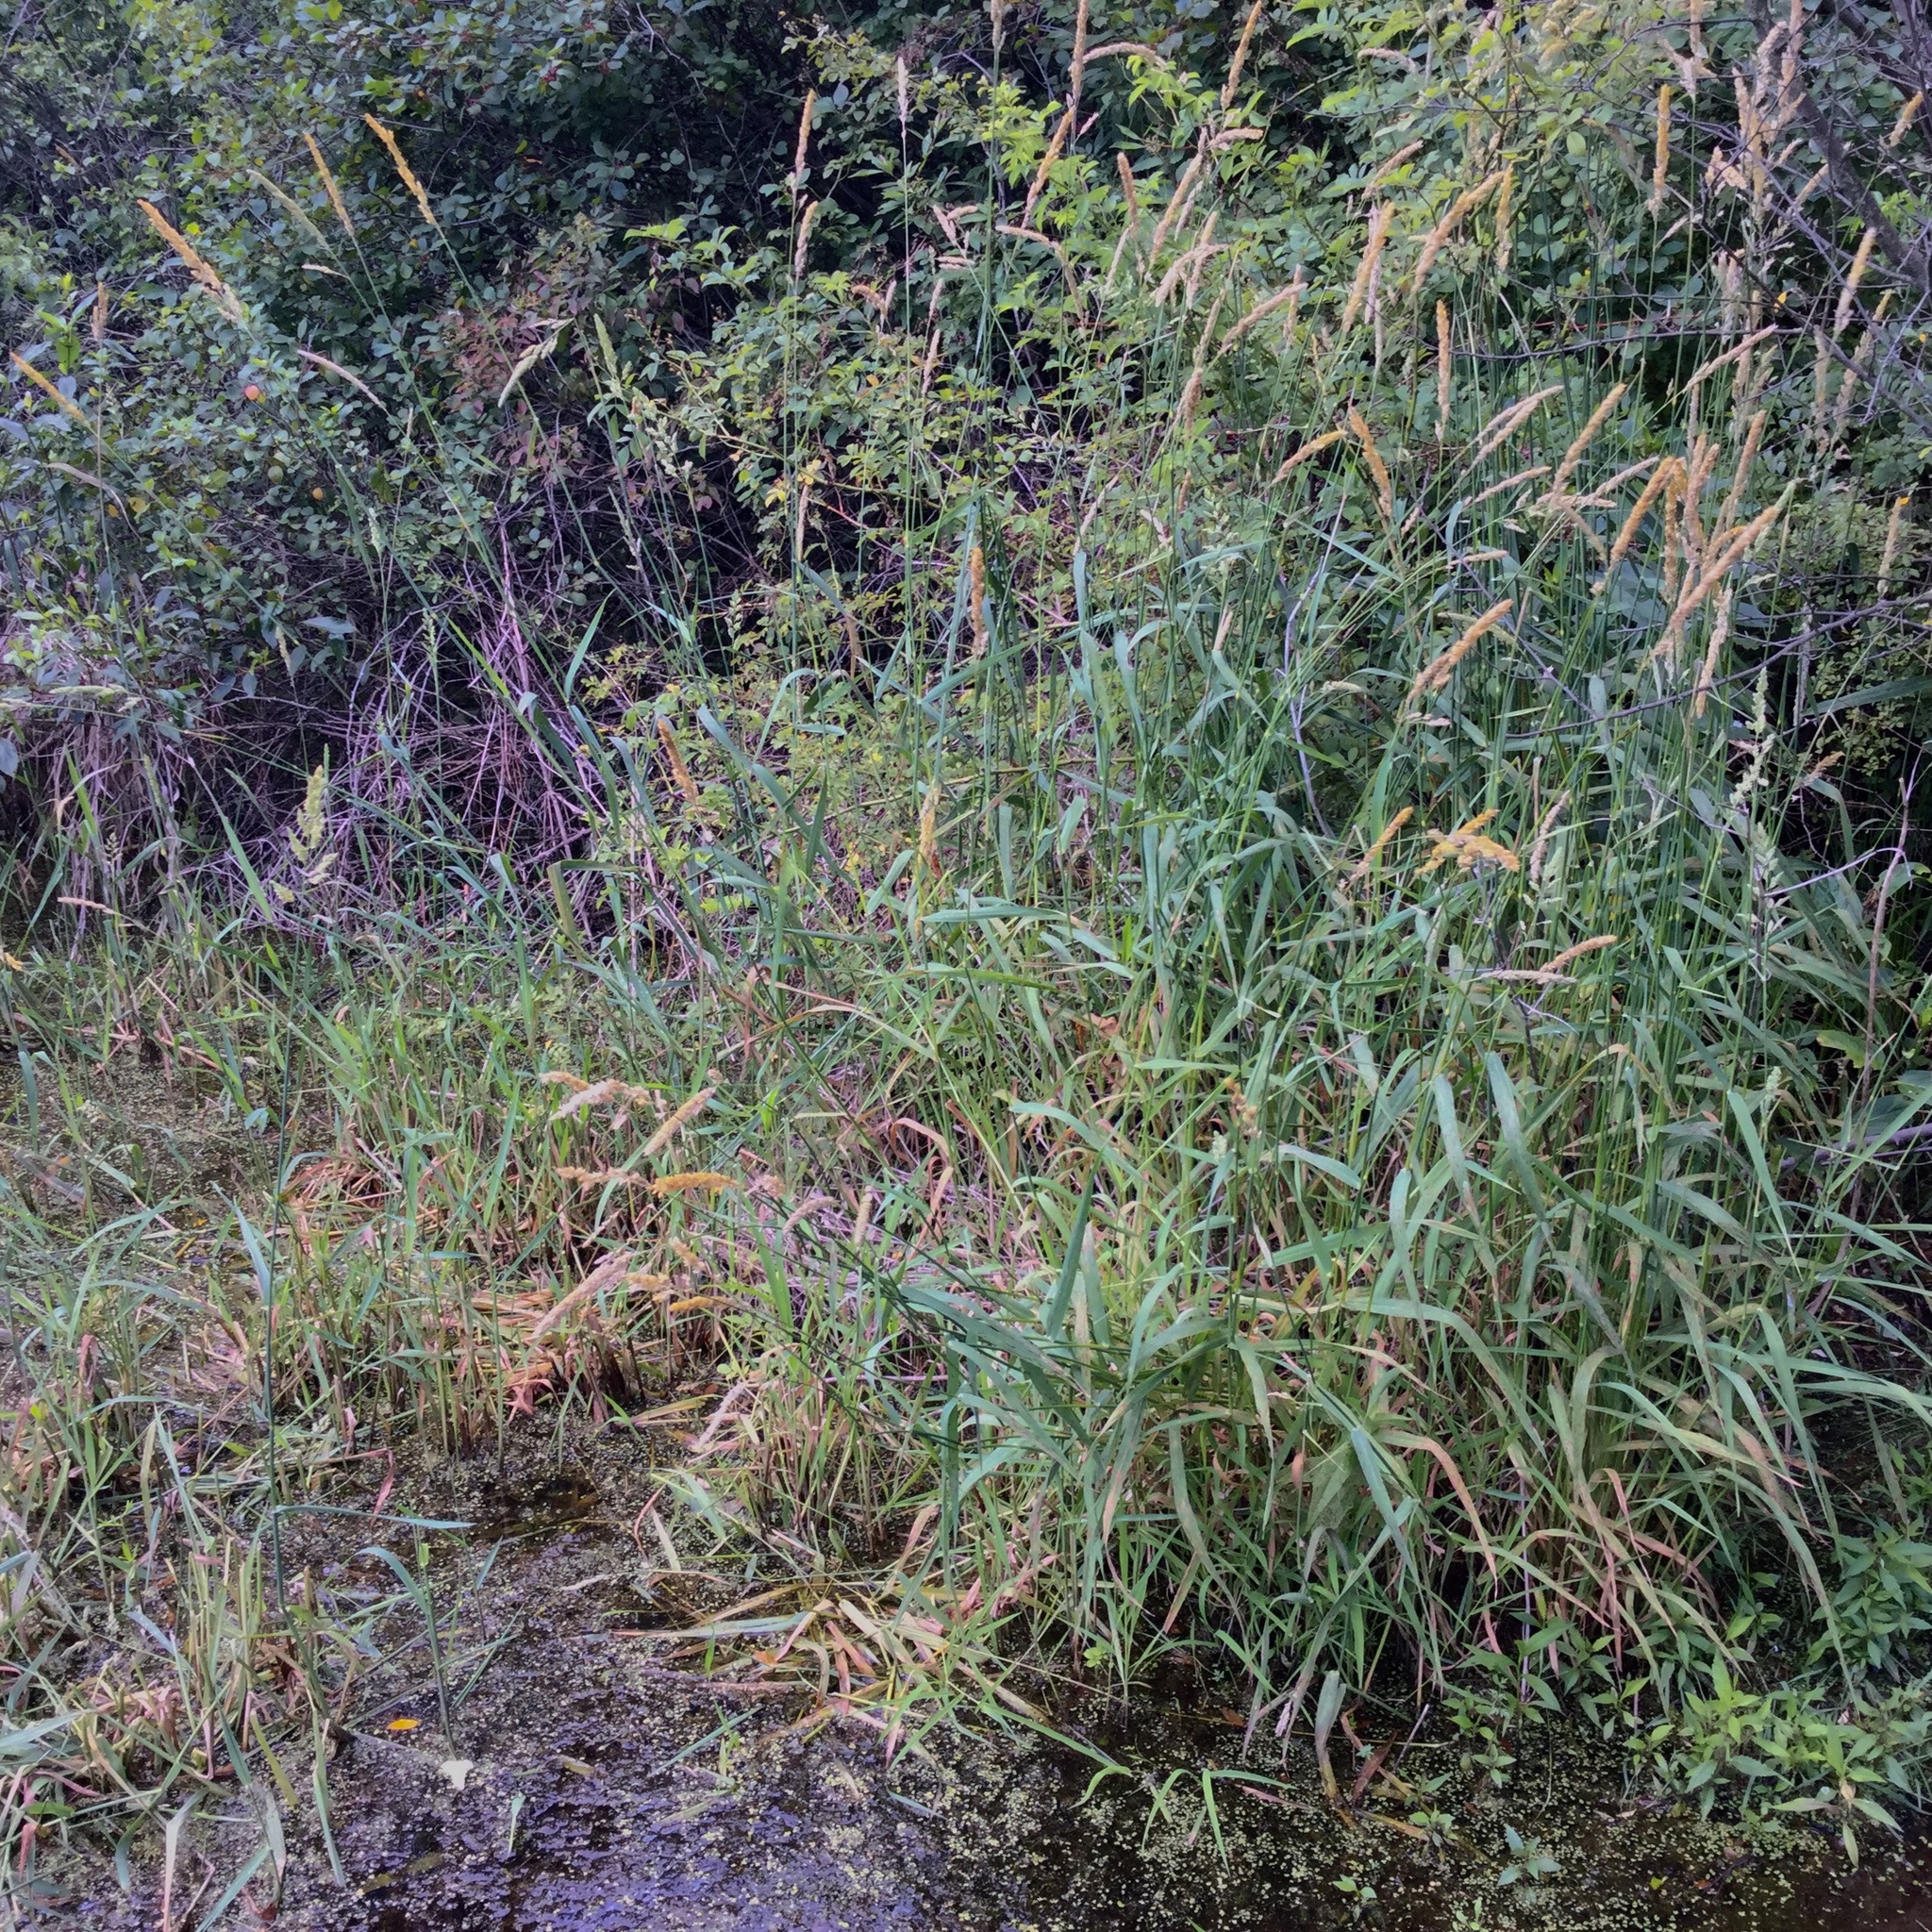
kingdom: Plantae
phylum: Tracheophyta
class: Liliopsida
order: Poales
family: Poaceae
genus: Phalaris
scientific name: Phalaris arundinacea
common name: Reed canary-grass
